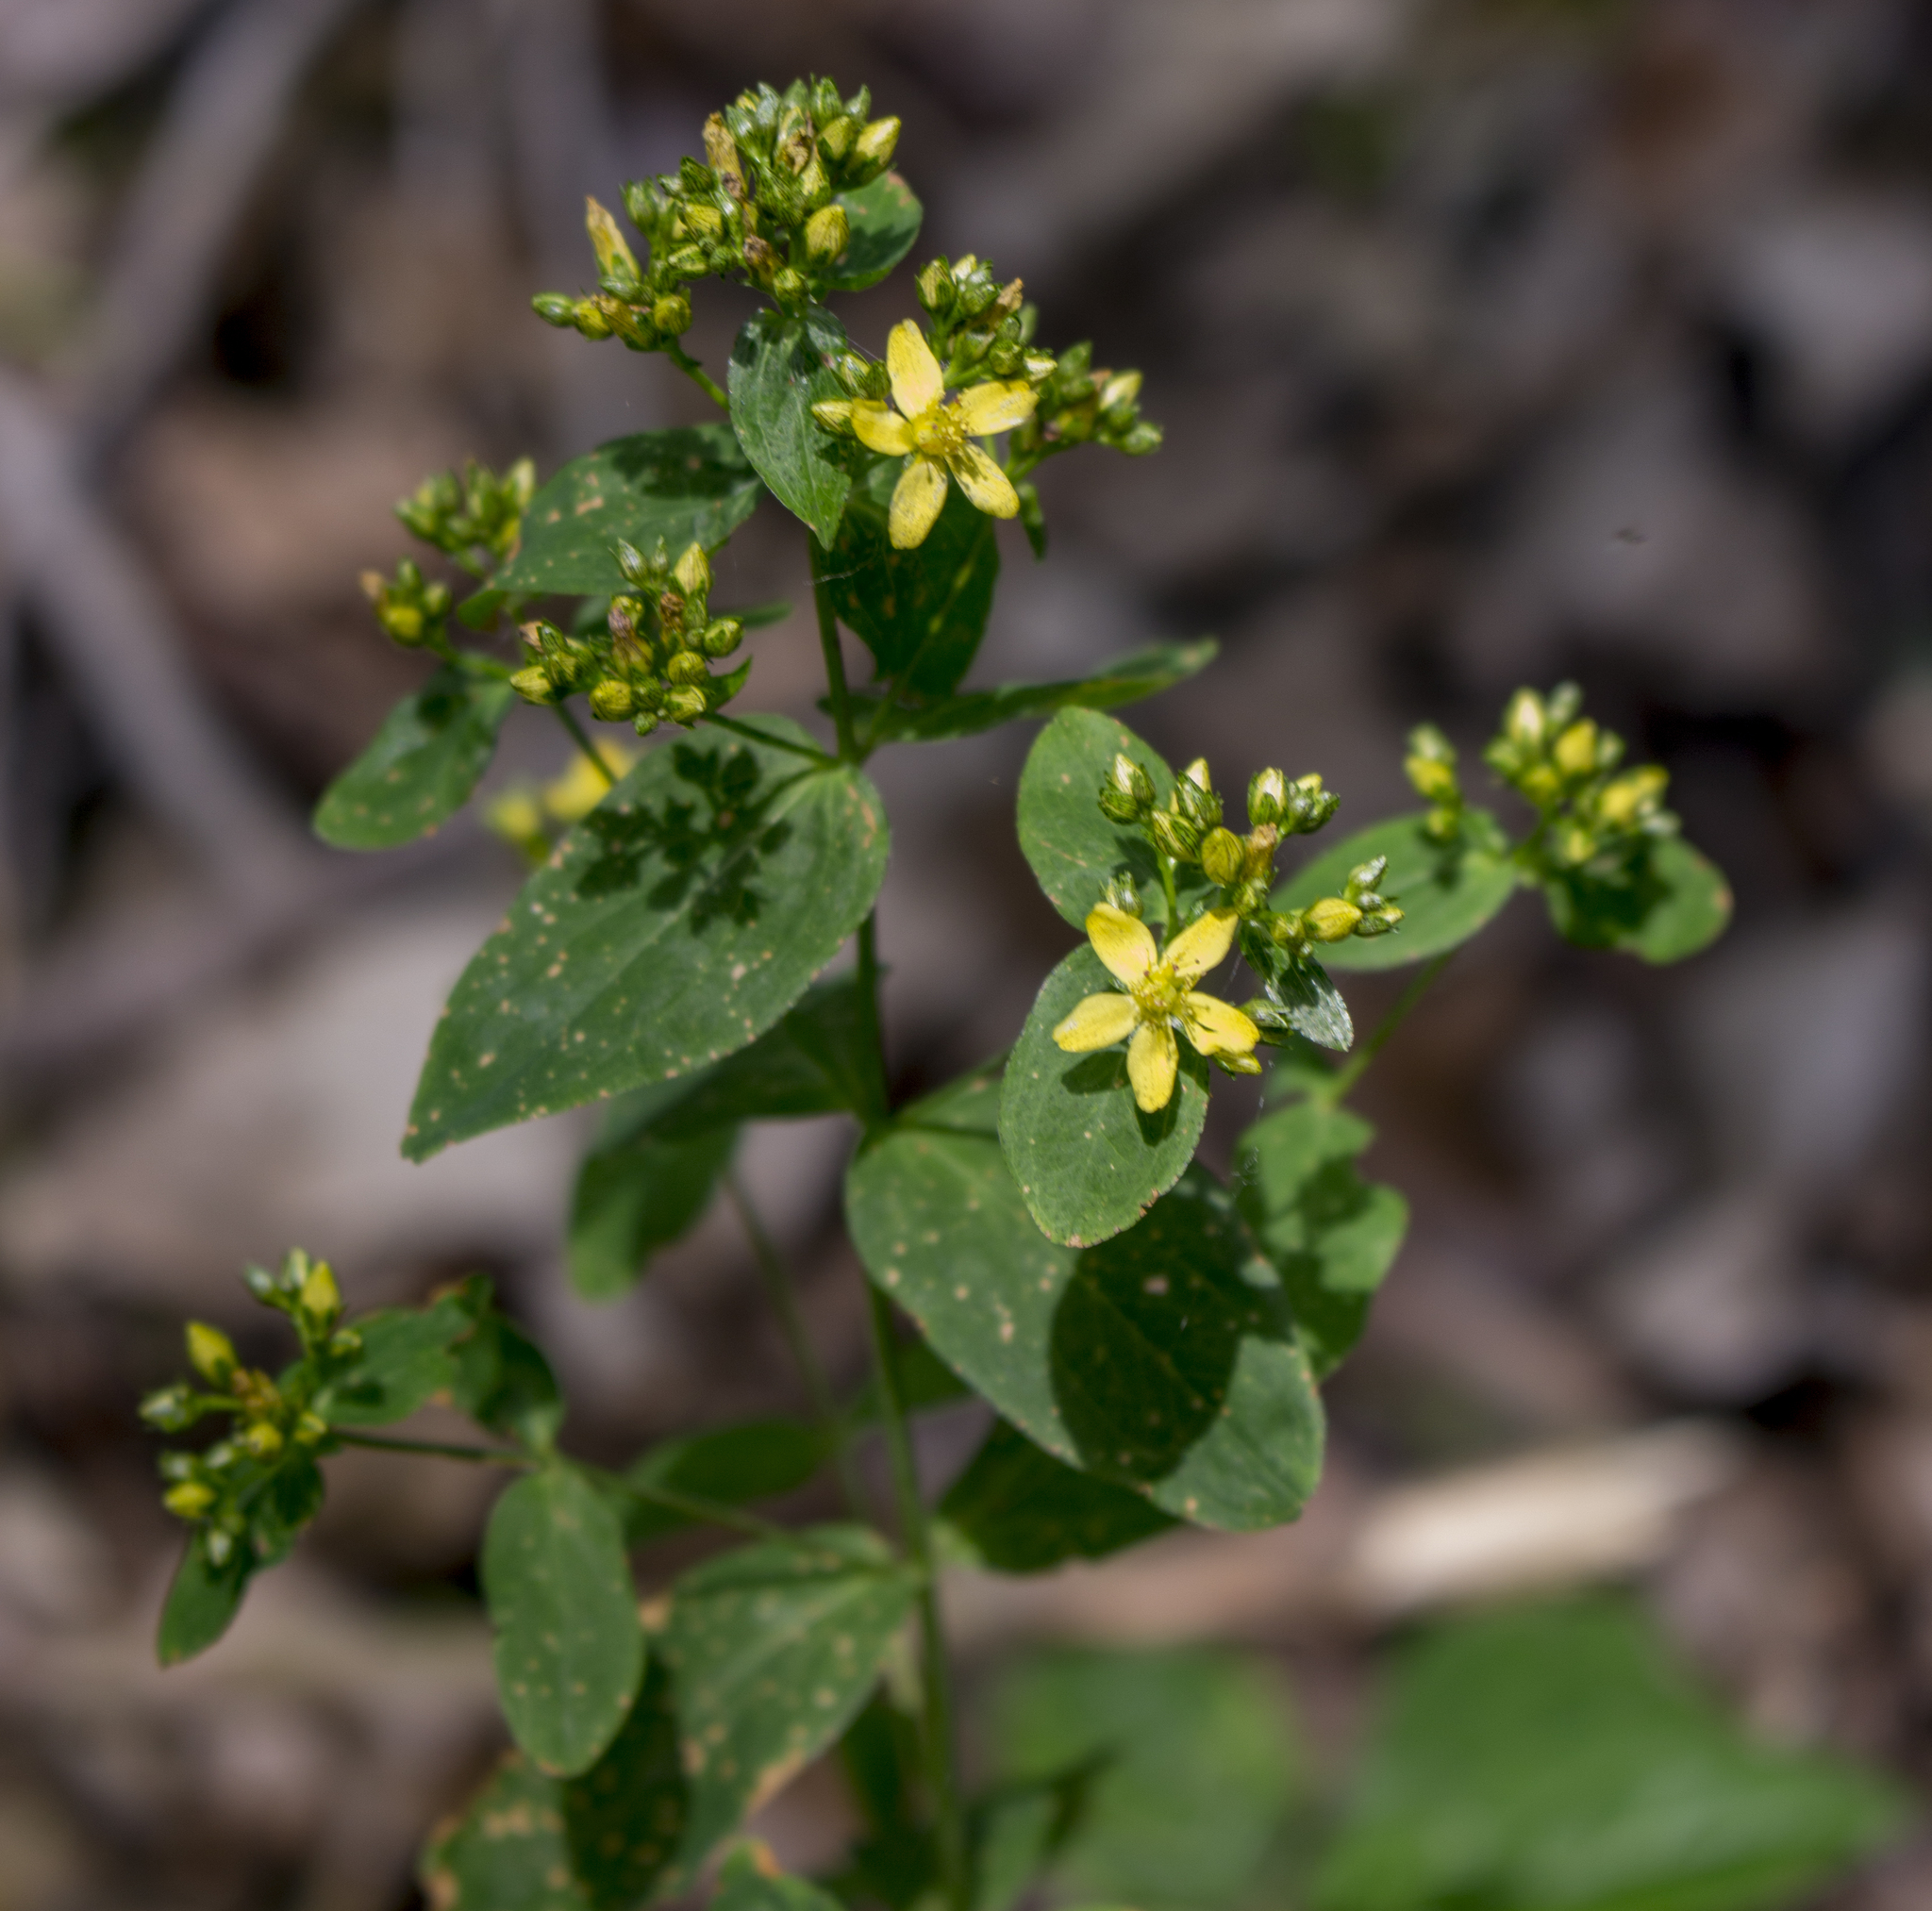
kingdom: Plantae
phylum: Tracheophyta
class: Magnoliopsida
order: Malpighiales
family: Hypericaceae
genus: Hypericum
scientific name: Hypericum punctatum
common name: Spotted st. john's-wort
